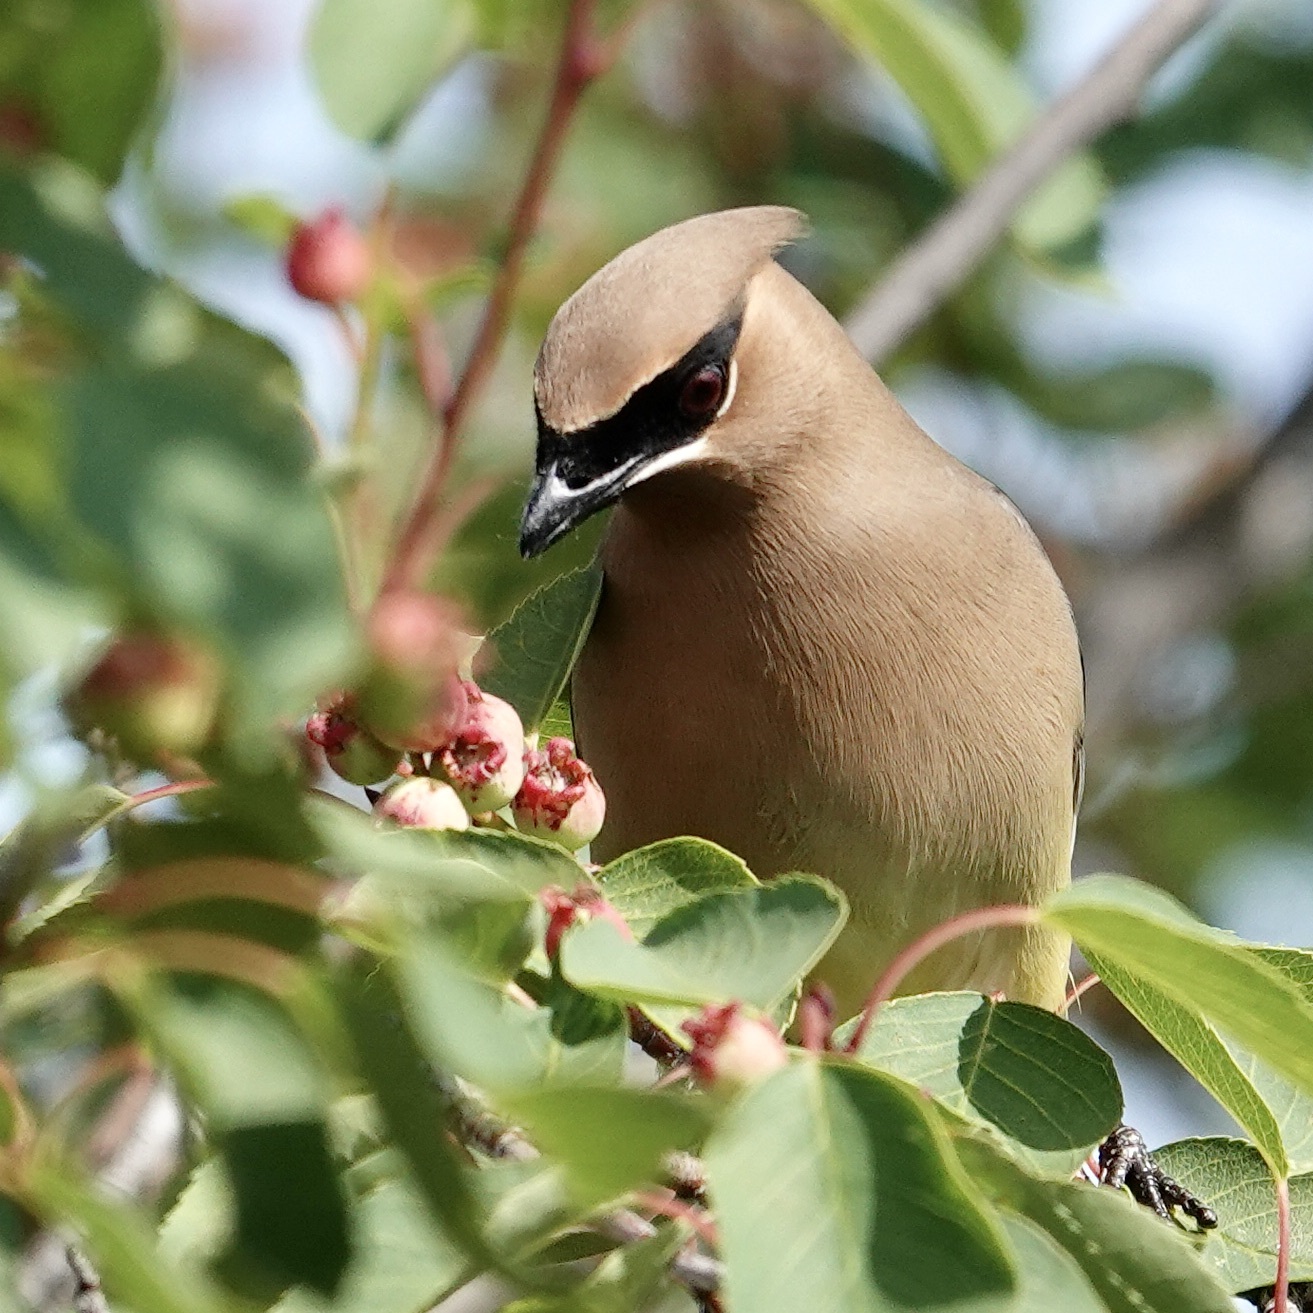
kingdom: Animalia
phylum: Chordata
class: Aves
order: Passeriformes
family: Bombycillidae
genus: Bombycilla
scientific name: Bombycilla cedrorum
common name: Cedar waxwing
